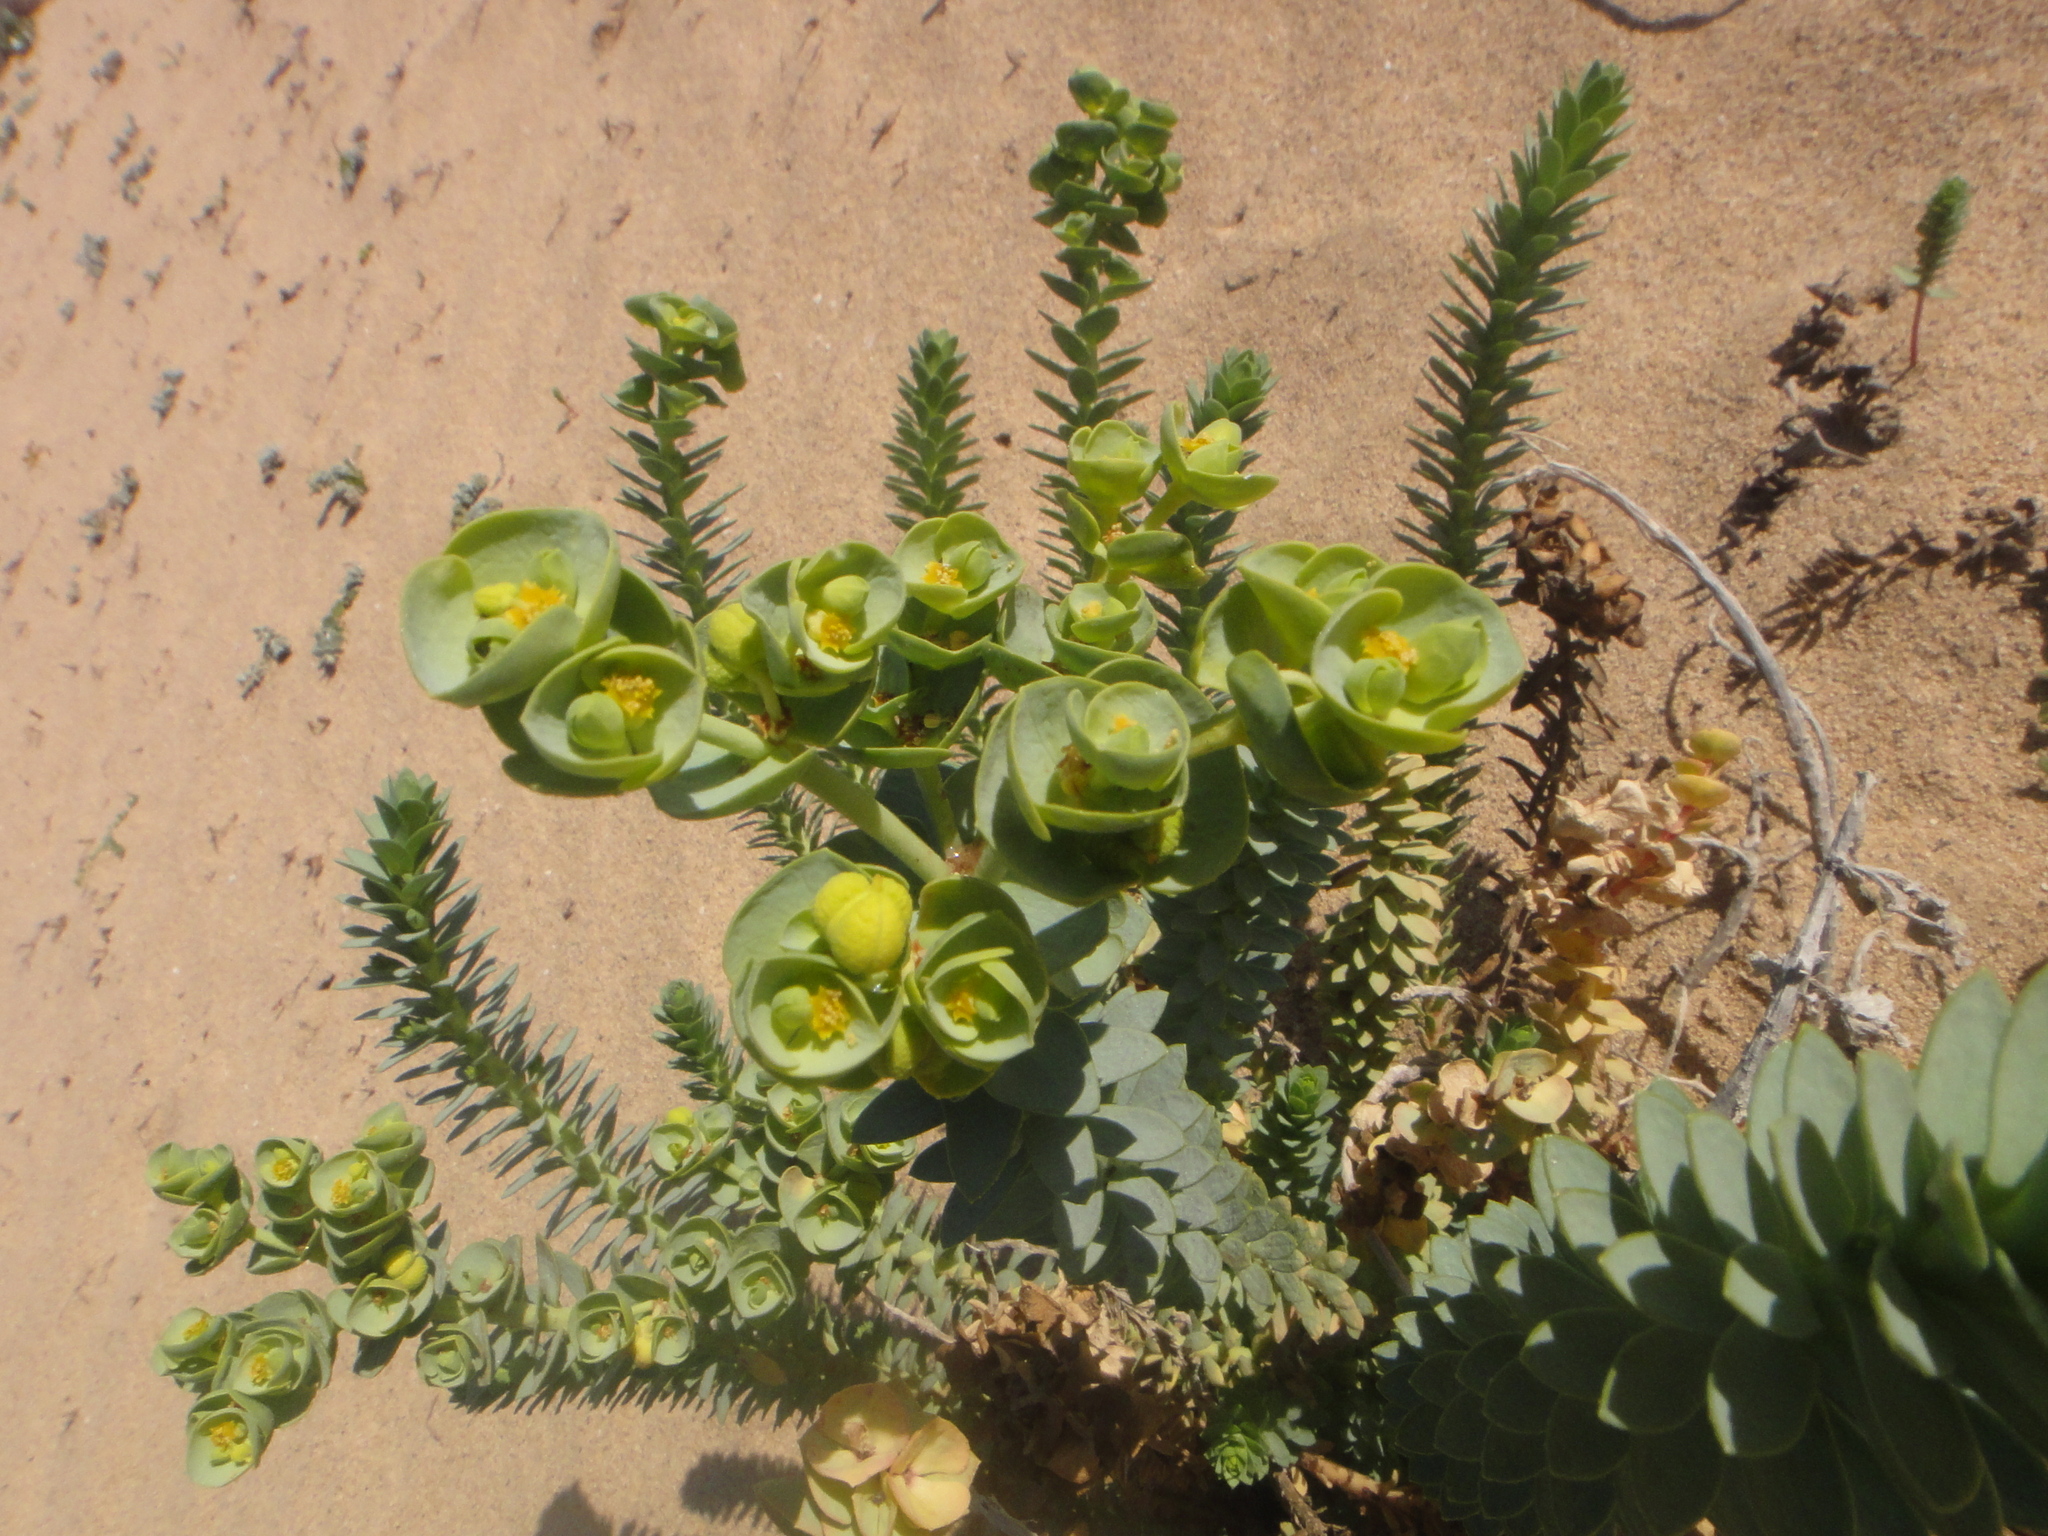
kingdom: Plantae
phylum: Tracheophyta
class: Magnoliopsida
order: Malpighiales
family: Euphorbiaceae
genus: Euphorbia
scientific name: Euphorbia paralias
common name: Sea spurge
